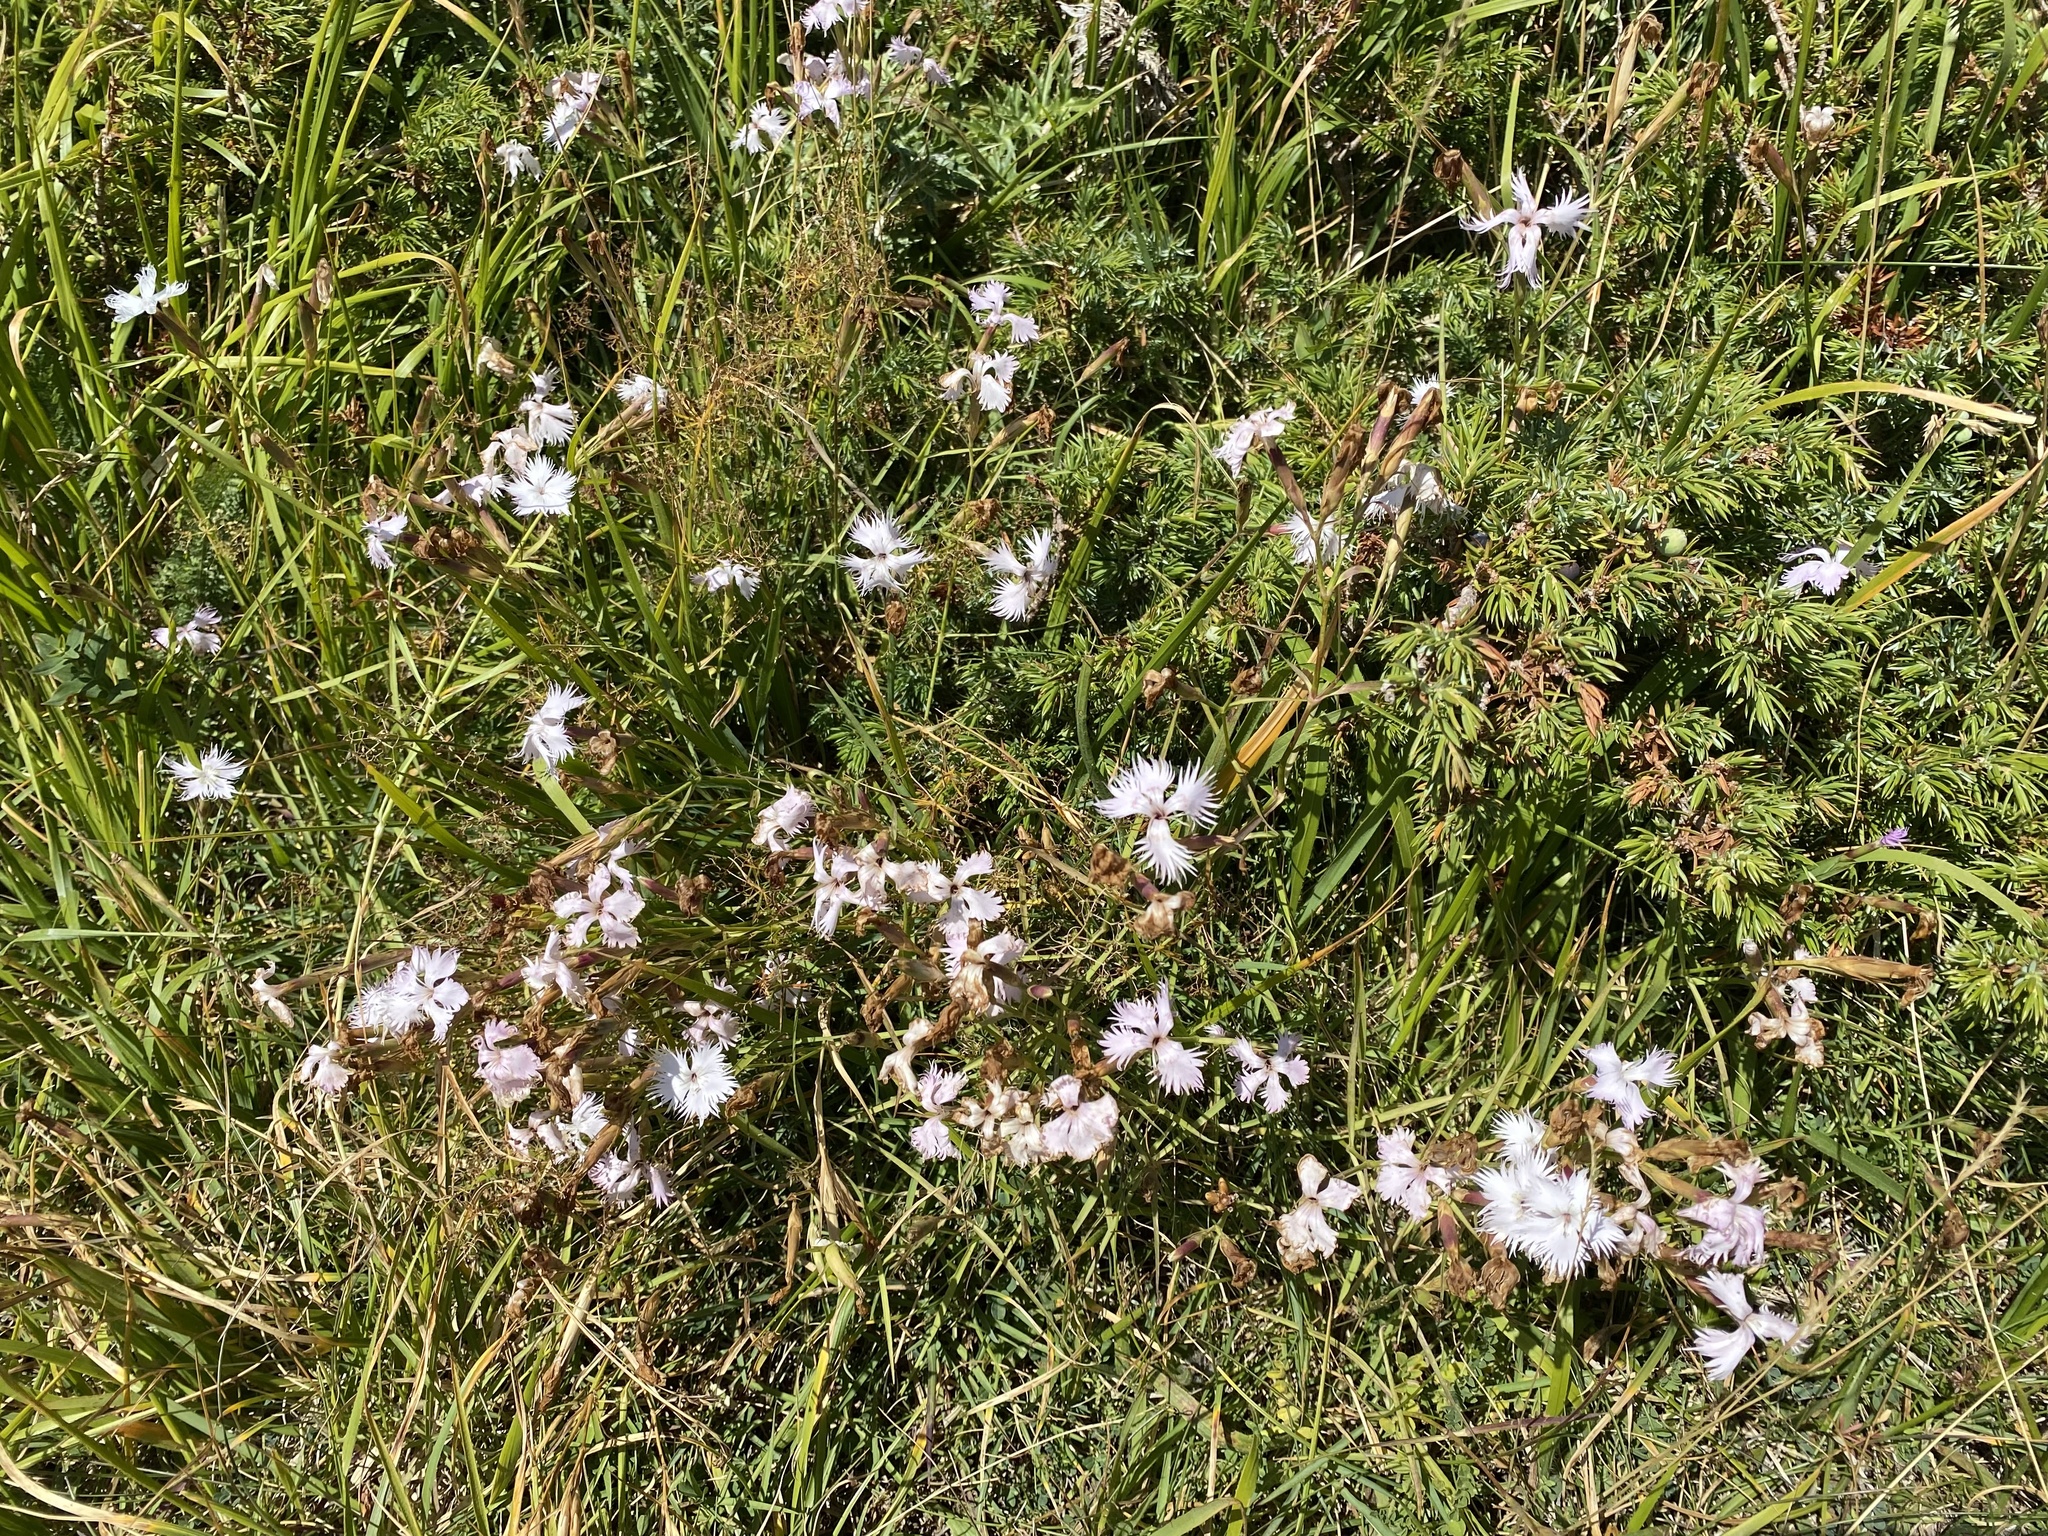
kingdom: Plantae
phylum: Tracheophyta
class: Magnoliopsida
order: Caryophyllales
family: Caryophyllaceae
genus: Dianthus
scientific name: Dianthus hyssopifolius
